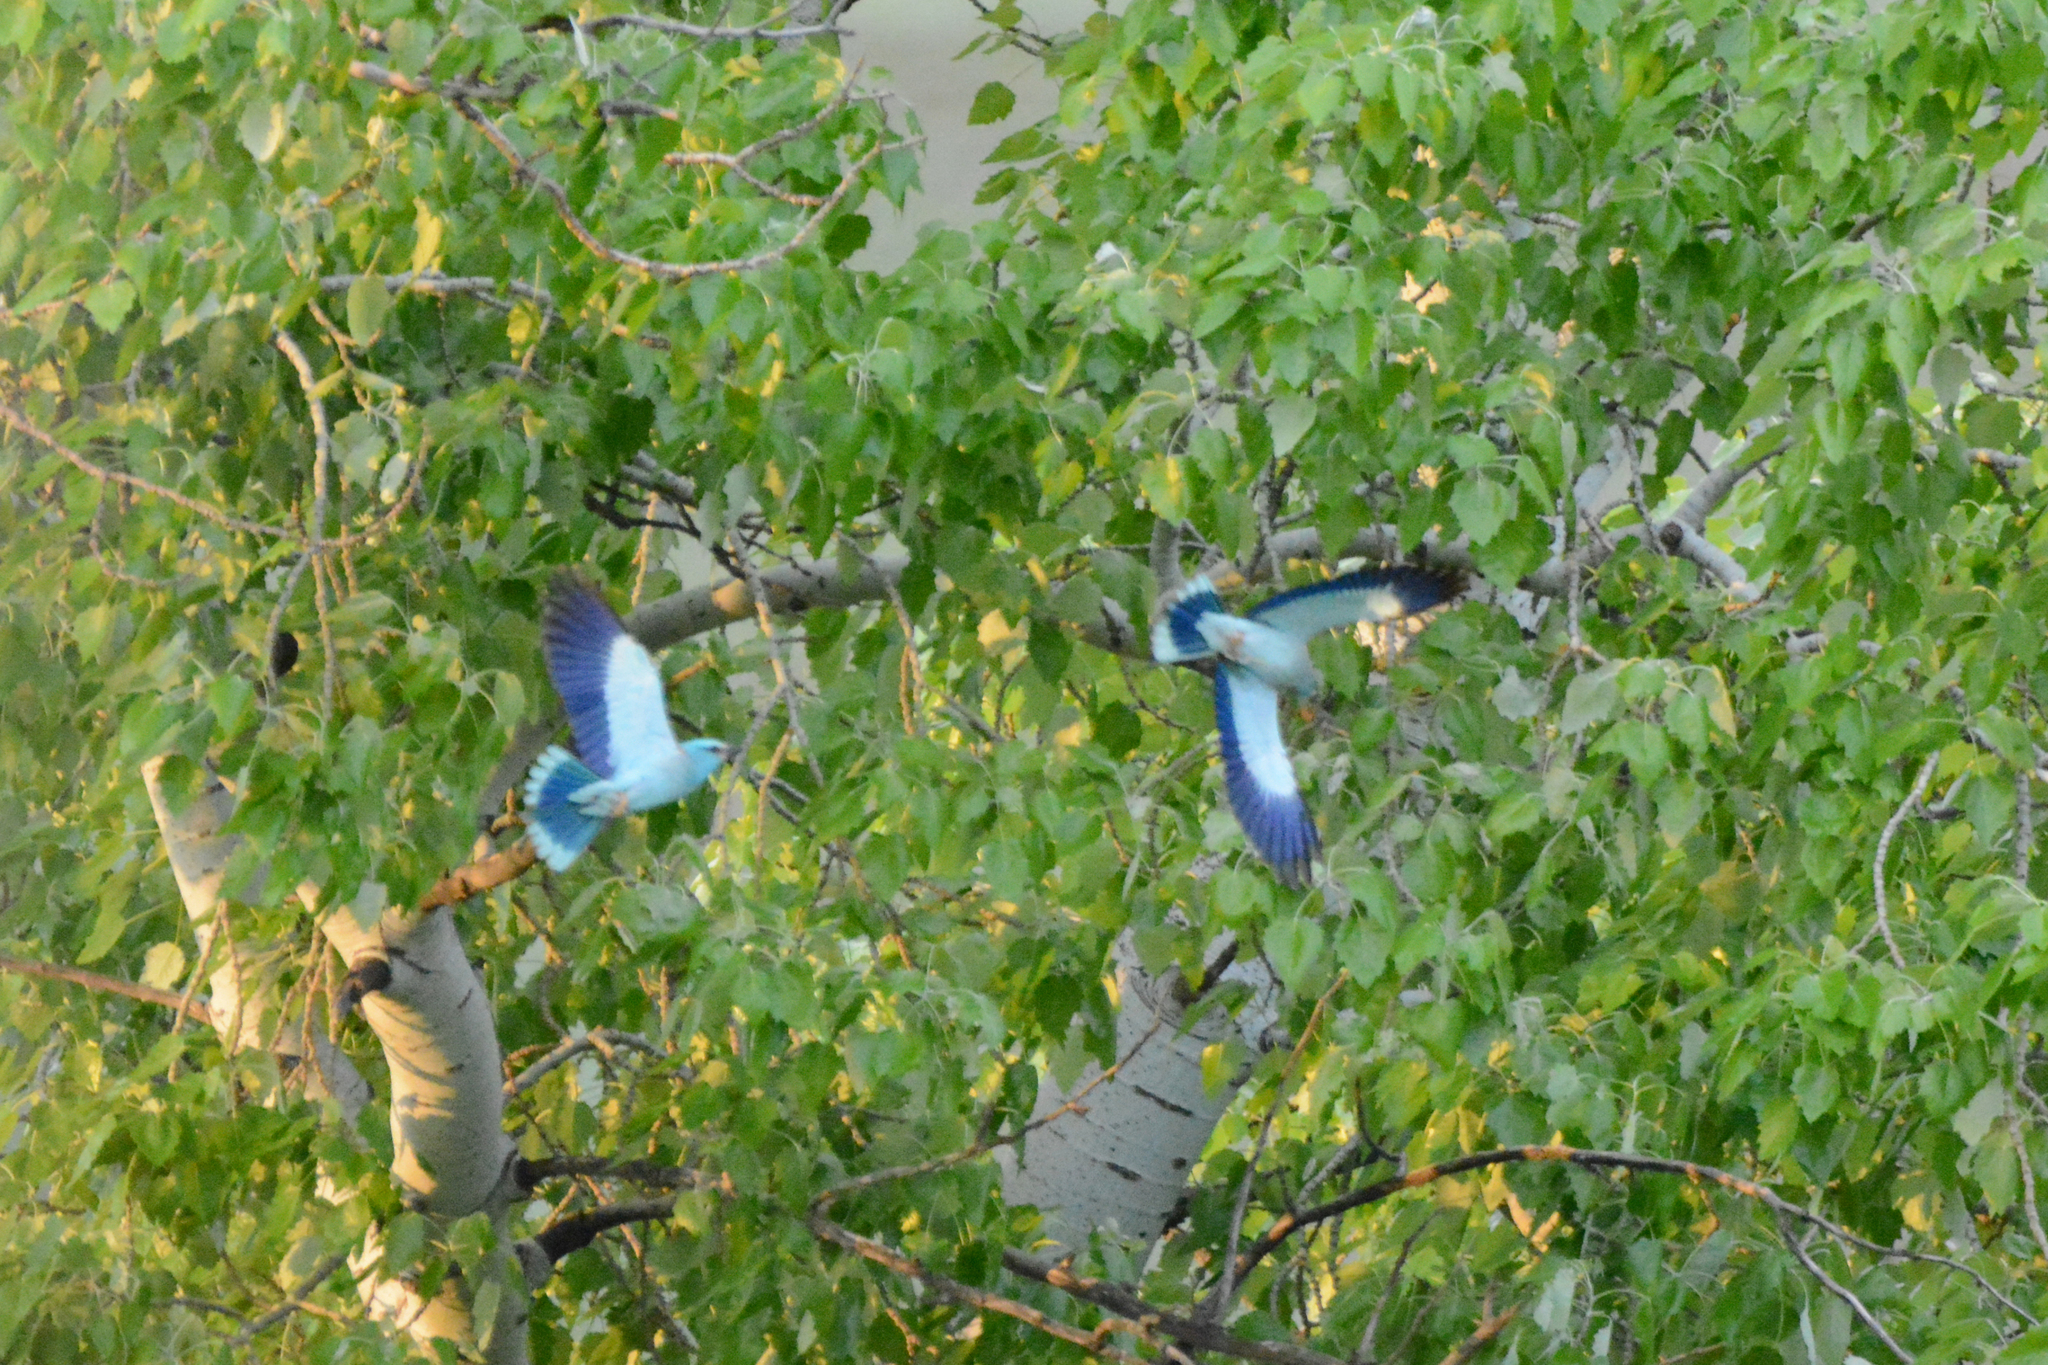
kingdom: Animalia
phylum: Chordata
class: Aves
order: Coraciiformes
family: Coraciidae
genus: Coracias
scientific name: Coracias garrulus
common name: European roller
